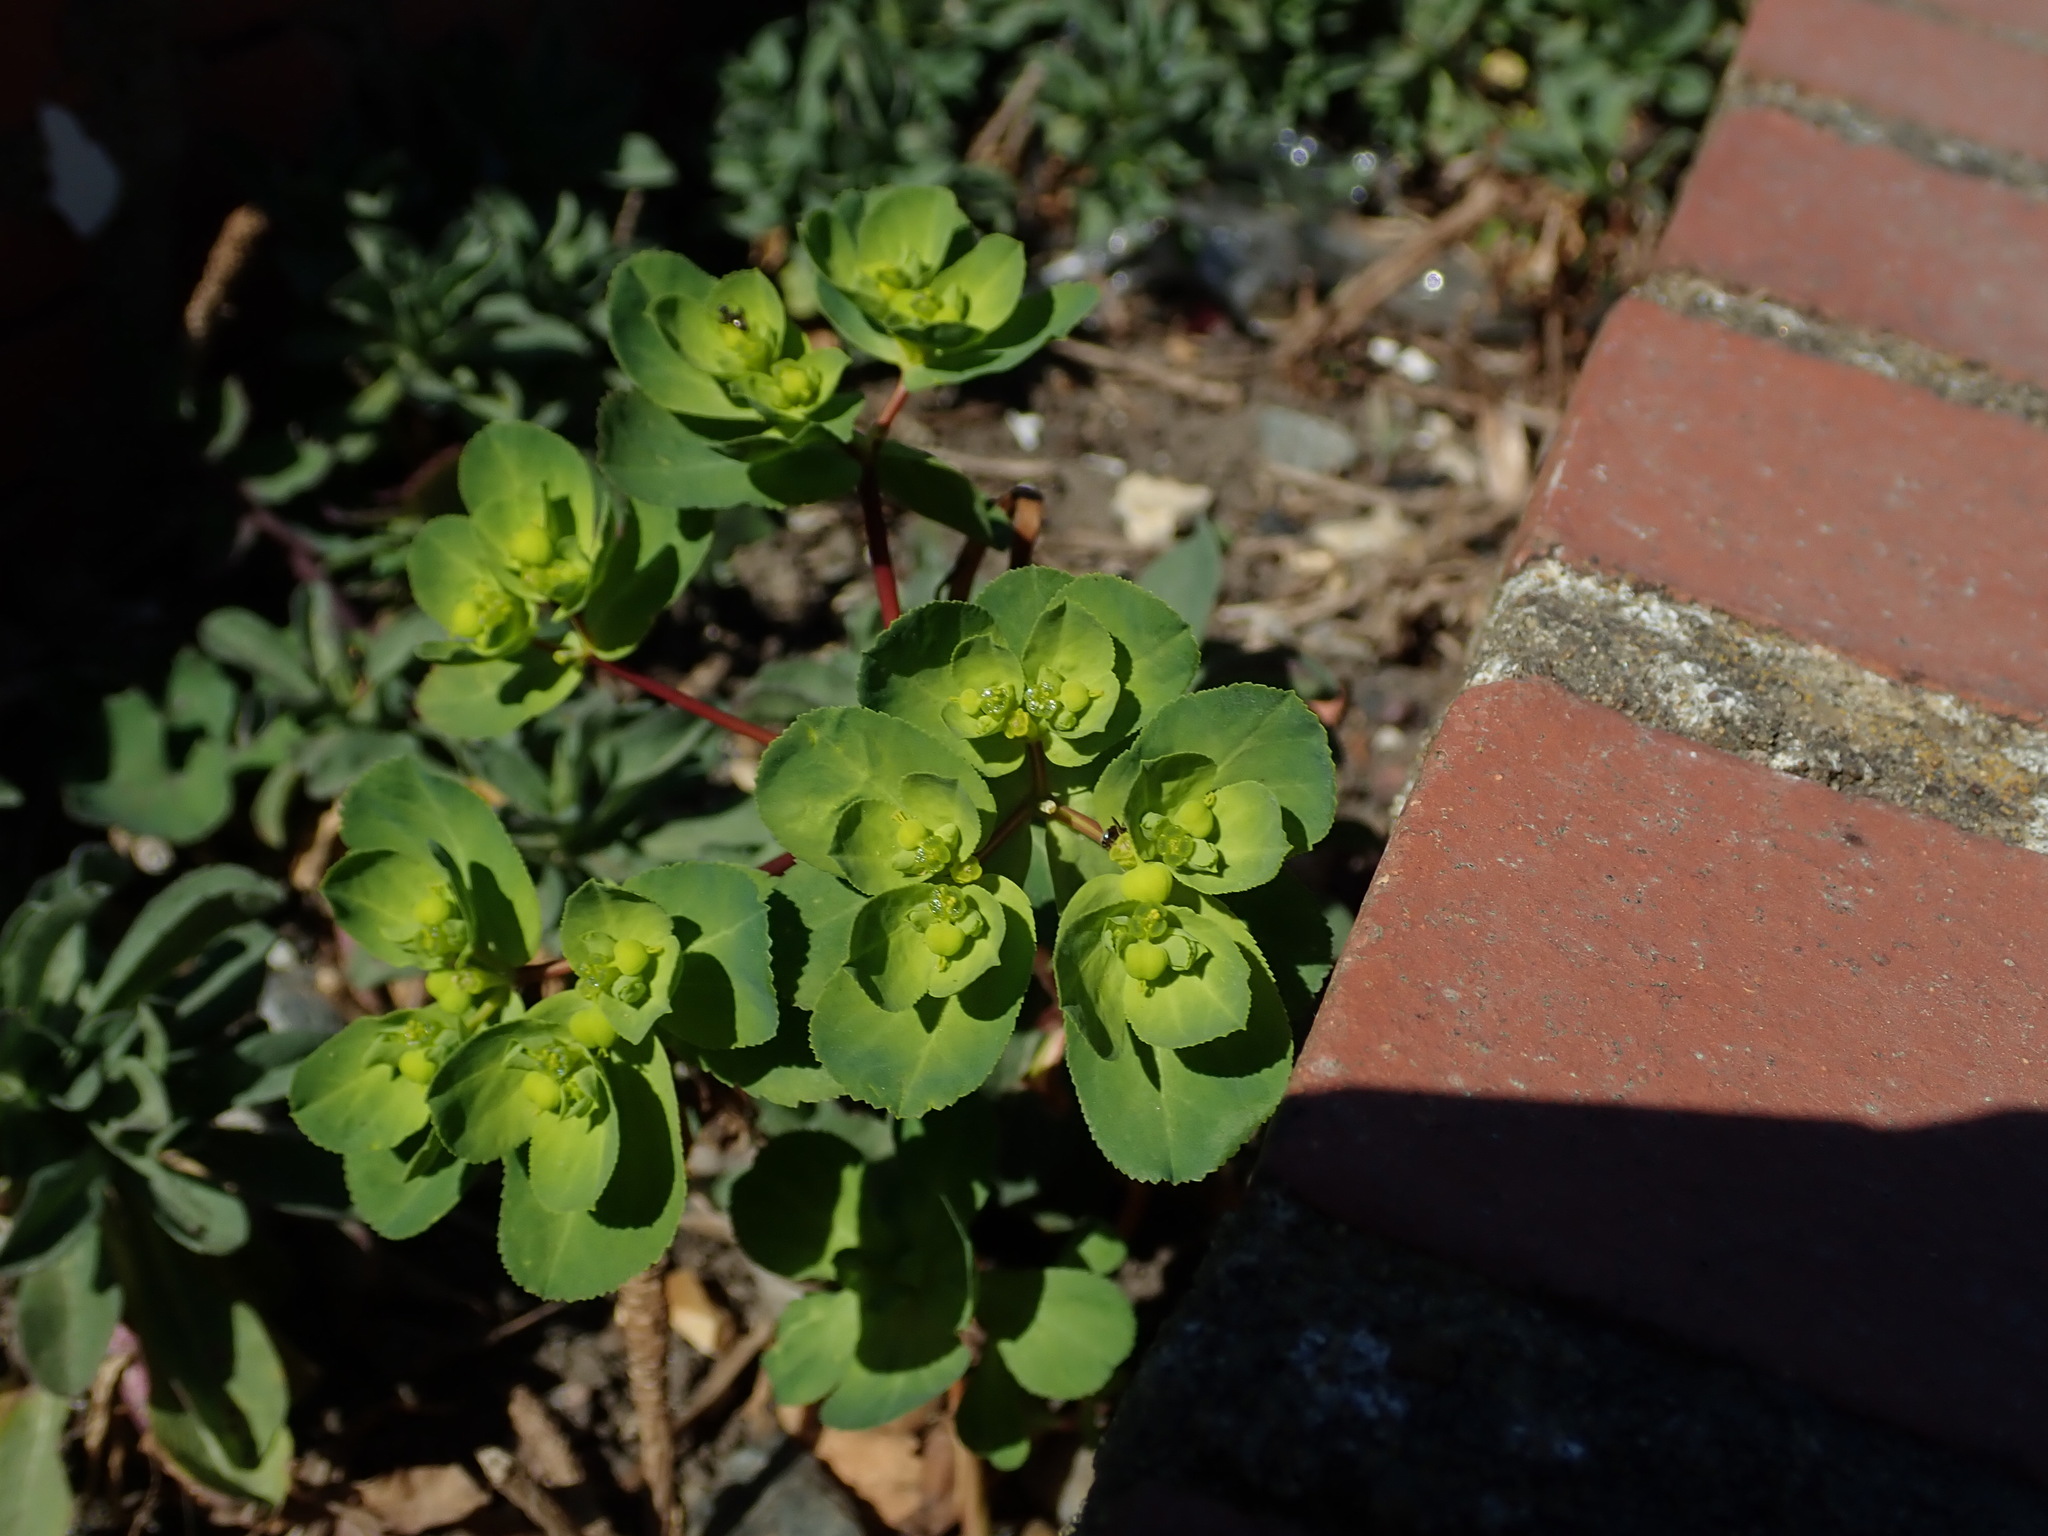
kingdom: Plantae
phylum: Tracheophyta
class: Magnoliopsida
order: Malpighiales
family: Euphorbiaceae
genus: Euphorbia
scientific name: Euphorbia helioscopia
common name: Sun spurge
